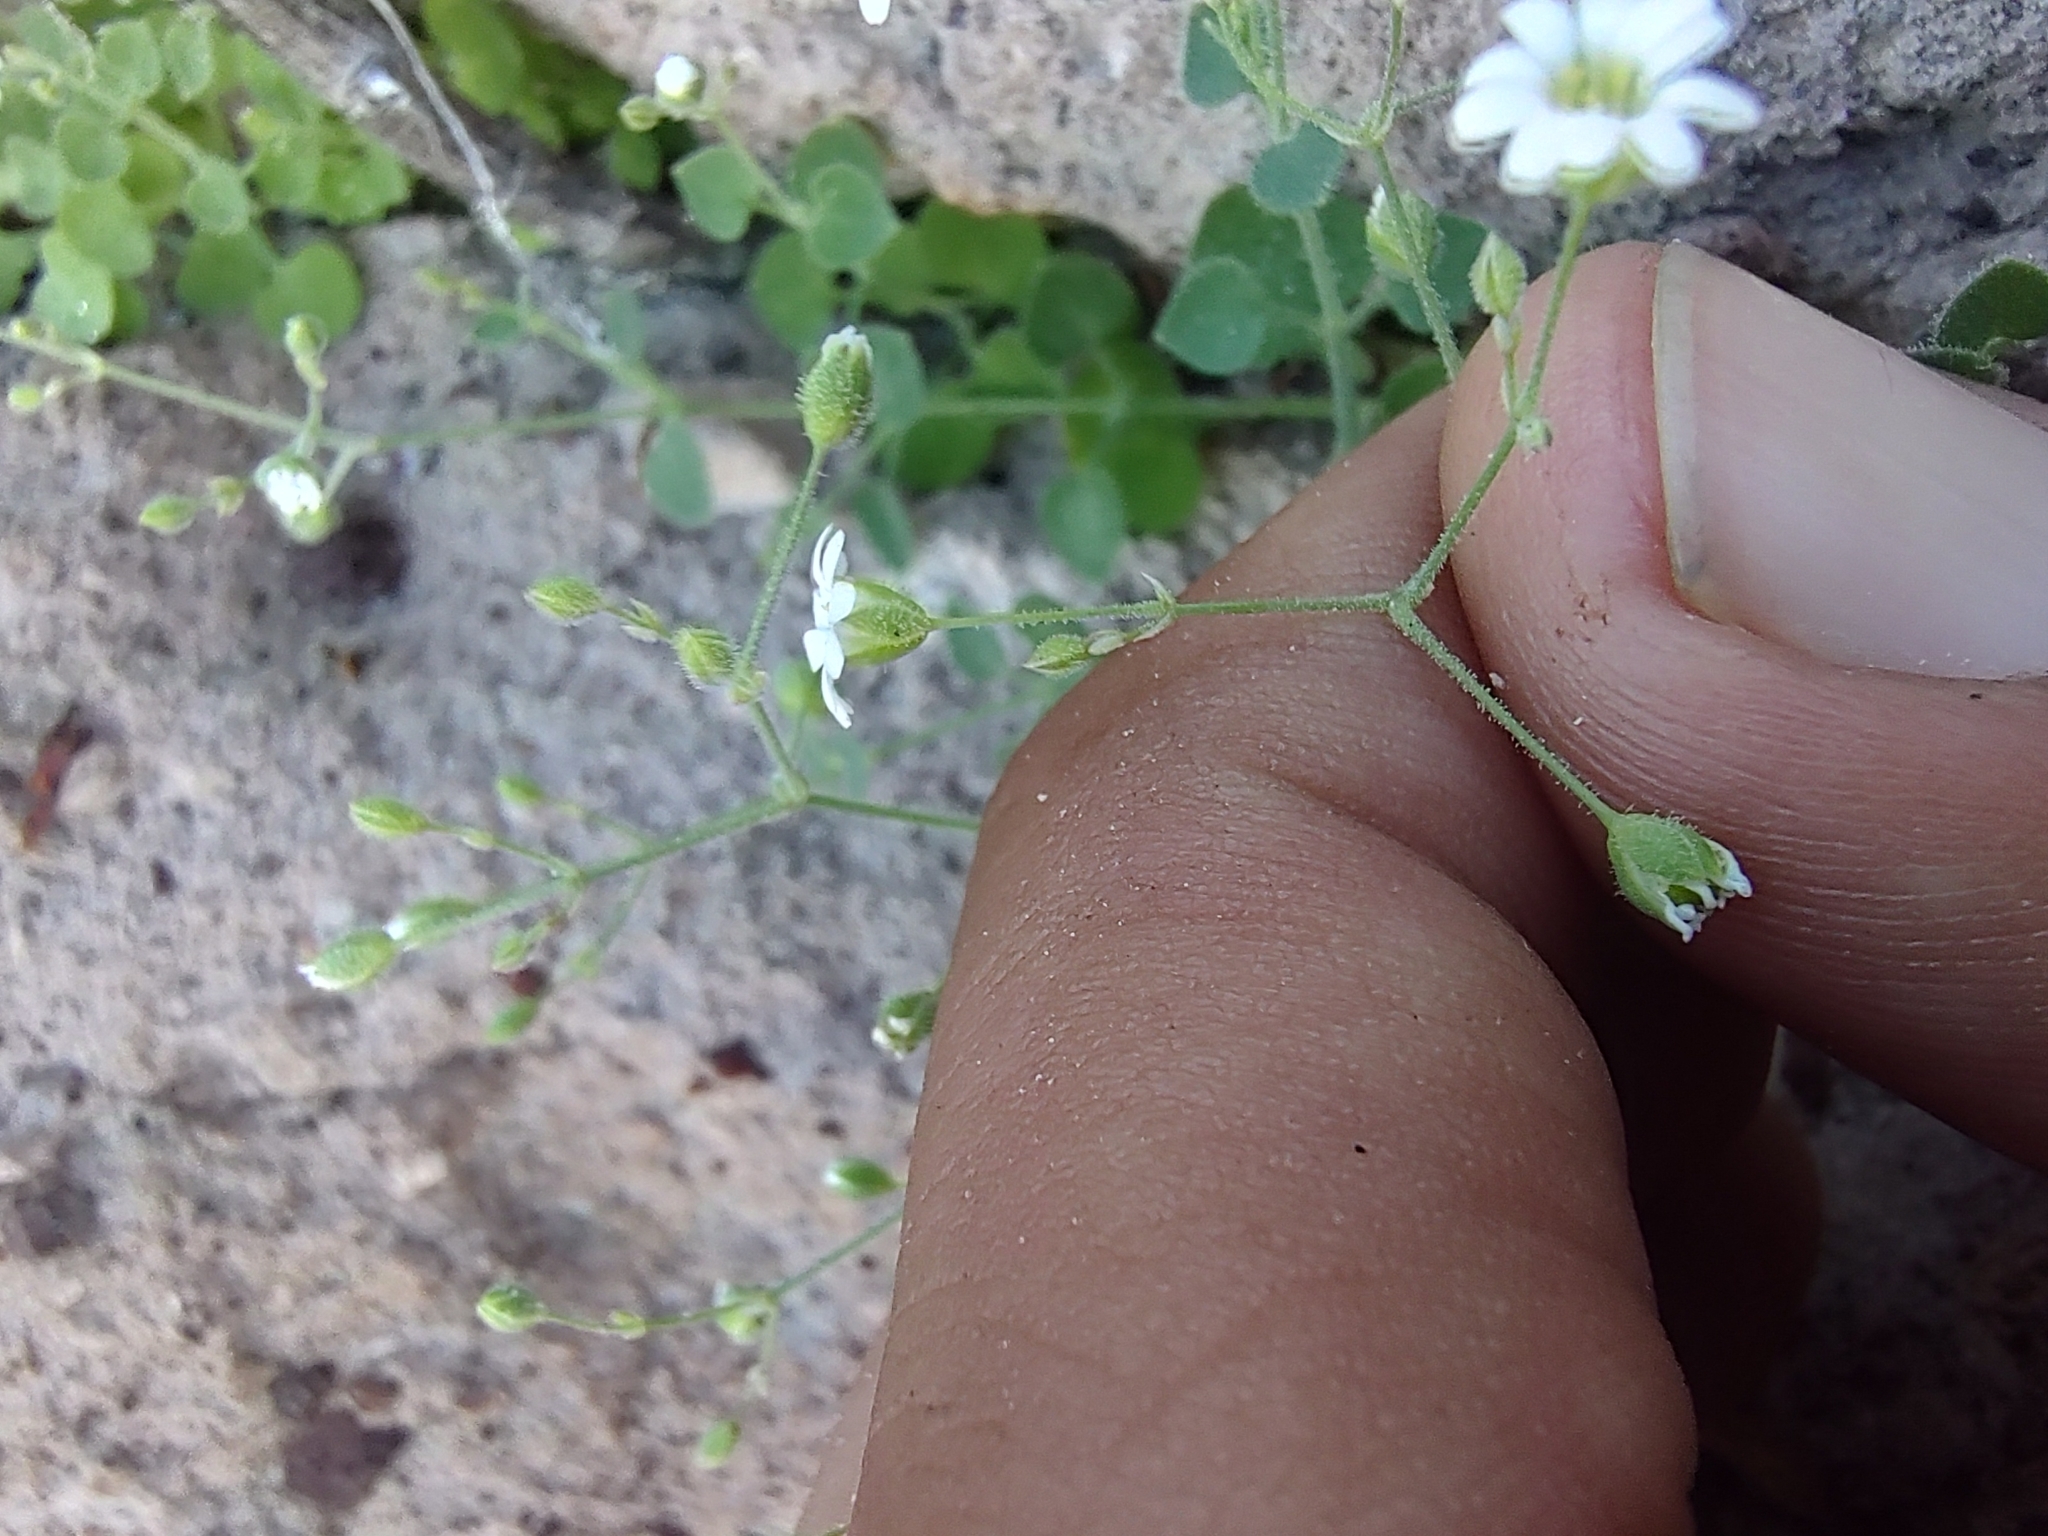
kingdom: Plantae
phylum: Tracheophyta
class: Magnoliopsida
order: Caryophyllales
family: Caryophyllaceae
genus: Drymaria
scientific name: Drymaria debilis
